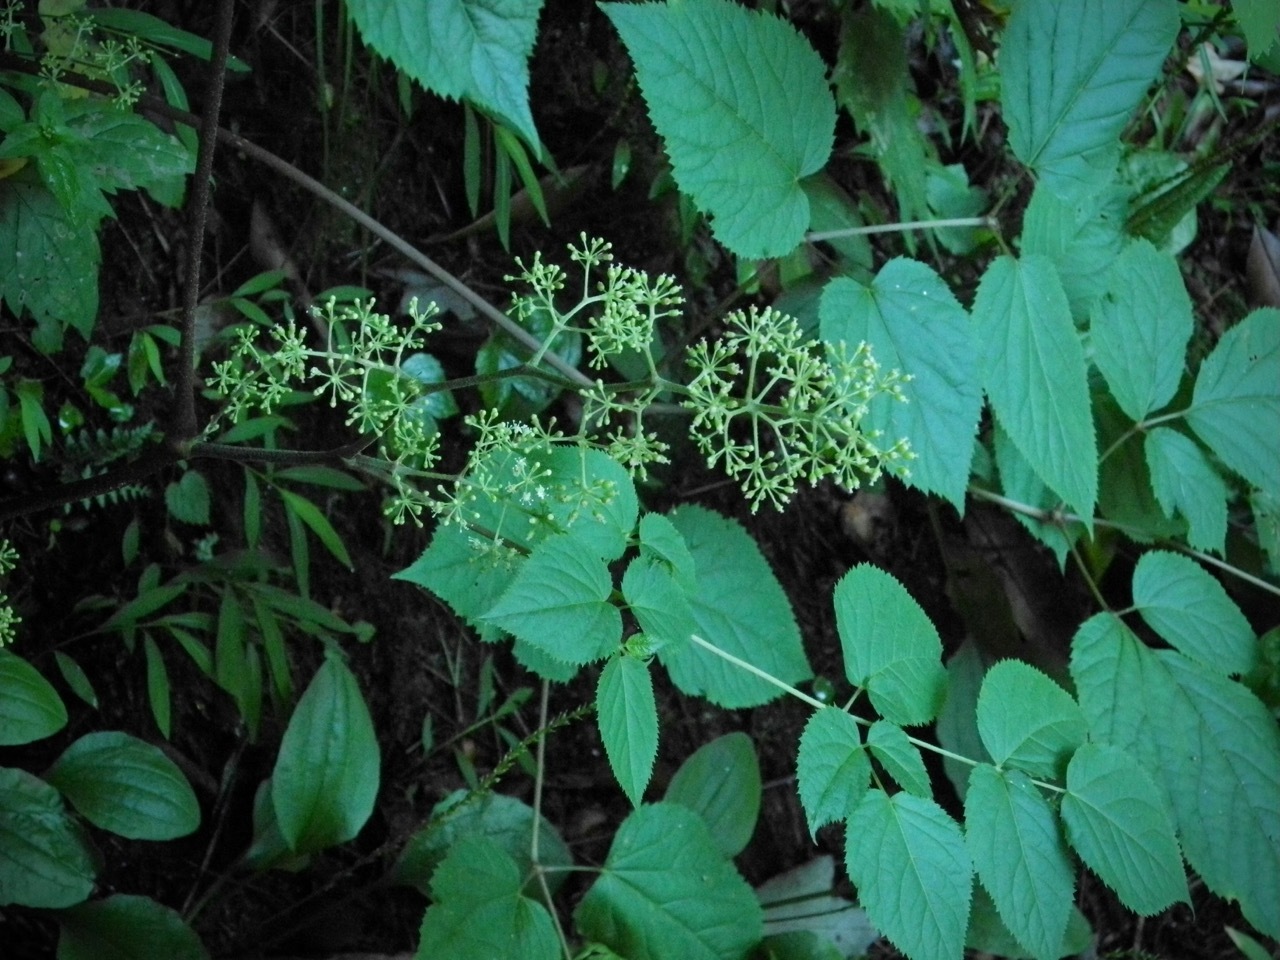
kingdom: Plantae
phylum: Tracheophyta
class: Magnoliopsida
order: Apiales
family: Araliaceae
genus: Aralia
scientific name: Aralia racemosa
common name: American-spikenard
